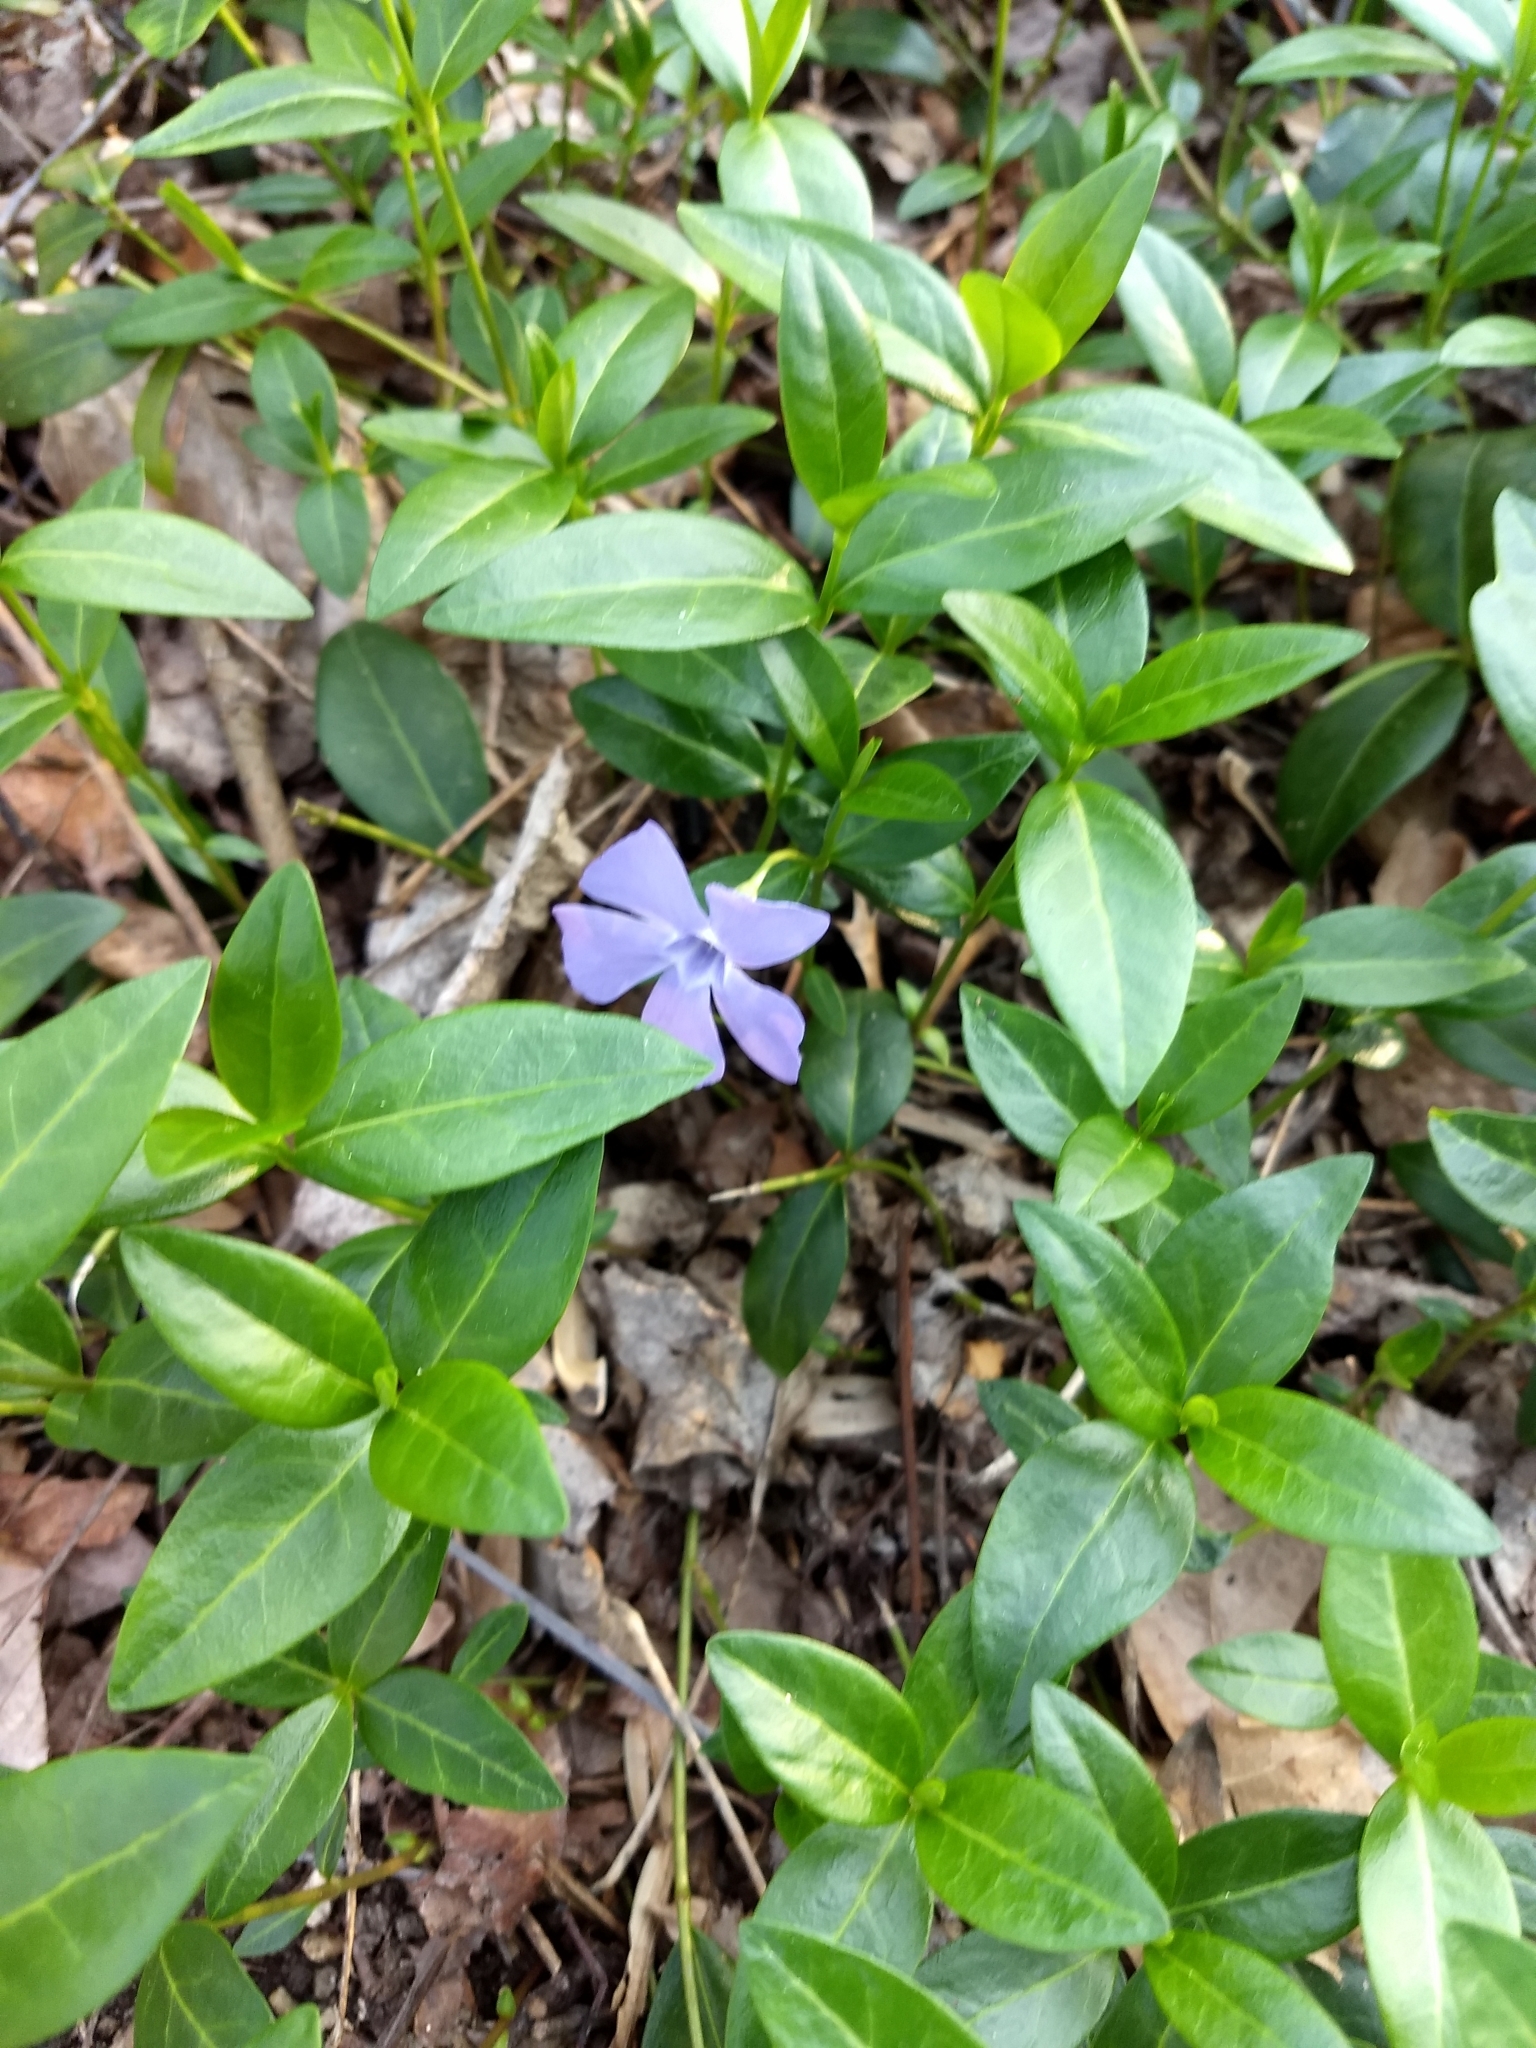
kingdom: Plantae
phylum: Tracheophyta
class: Magnoliopsida
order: Gentianales
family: Apocynaceae
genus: Vinca
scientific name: Vinca minor
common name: Lesser periwinkle
